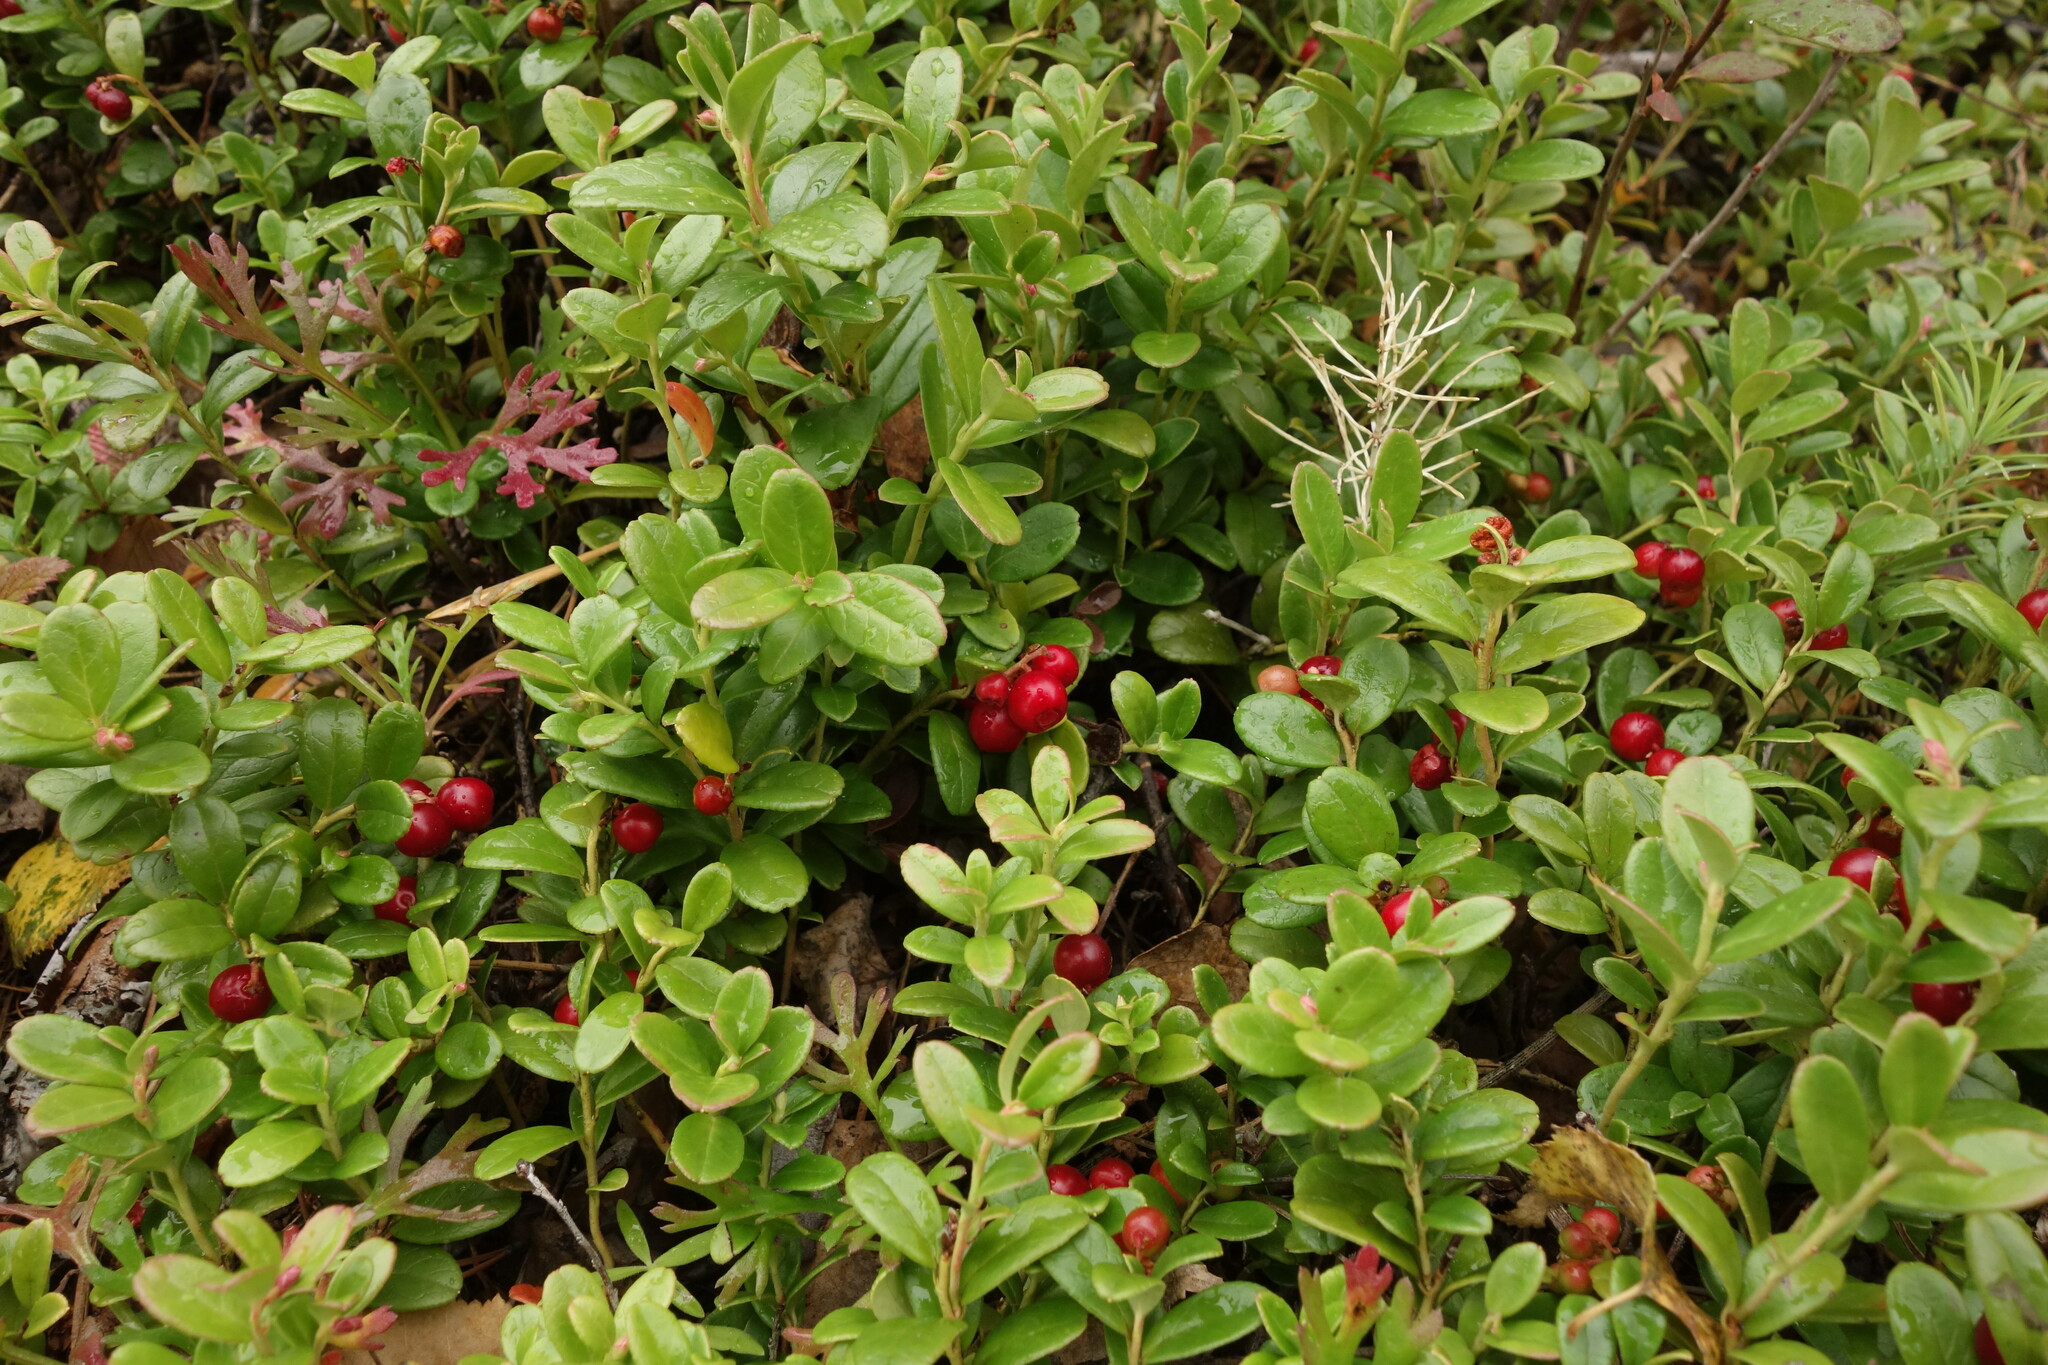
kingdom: Plantae
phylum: Tracheophyta
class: Magnoliopsida
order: Ericales
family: Ericaceae
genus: Vaccinium
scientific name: Vaccinium vitis-idaea
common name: Cowberry
